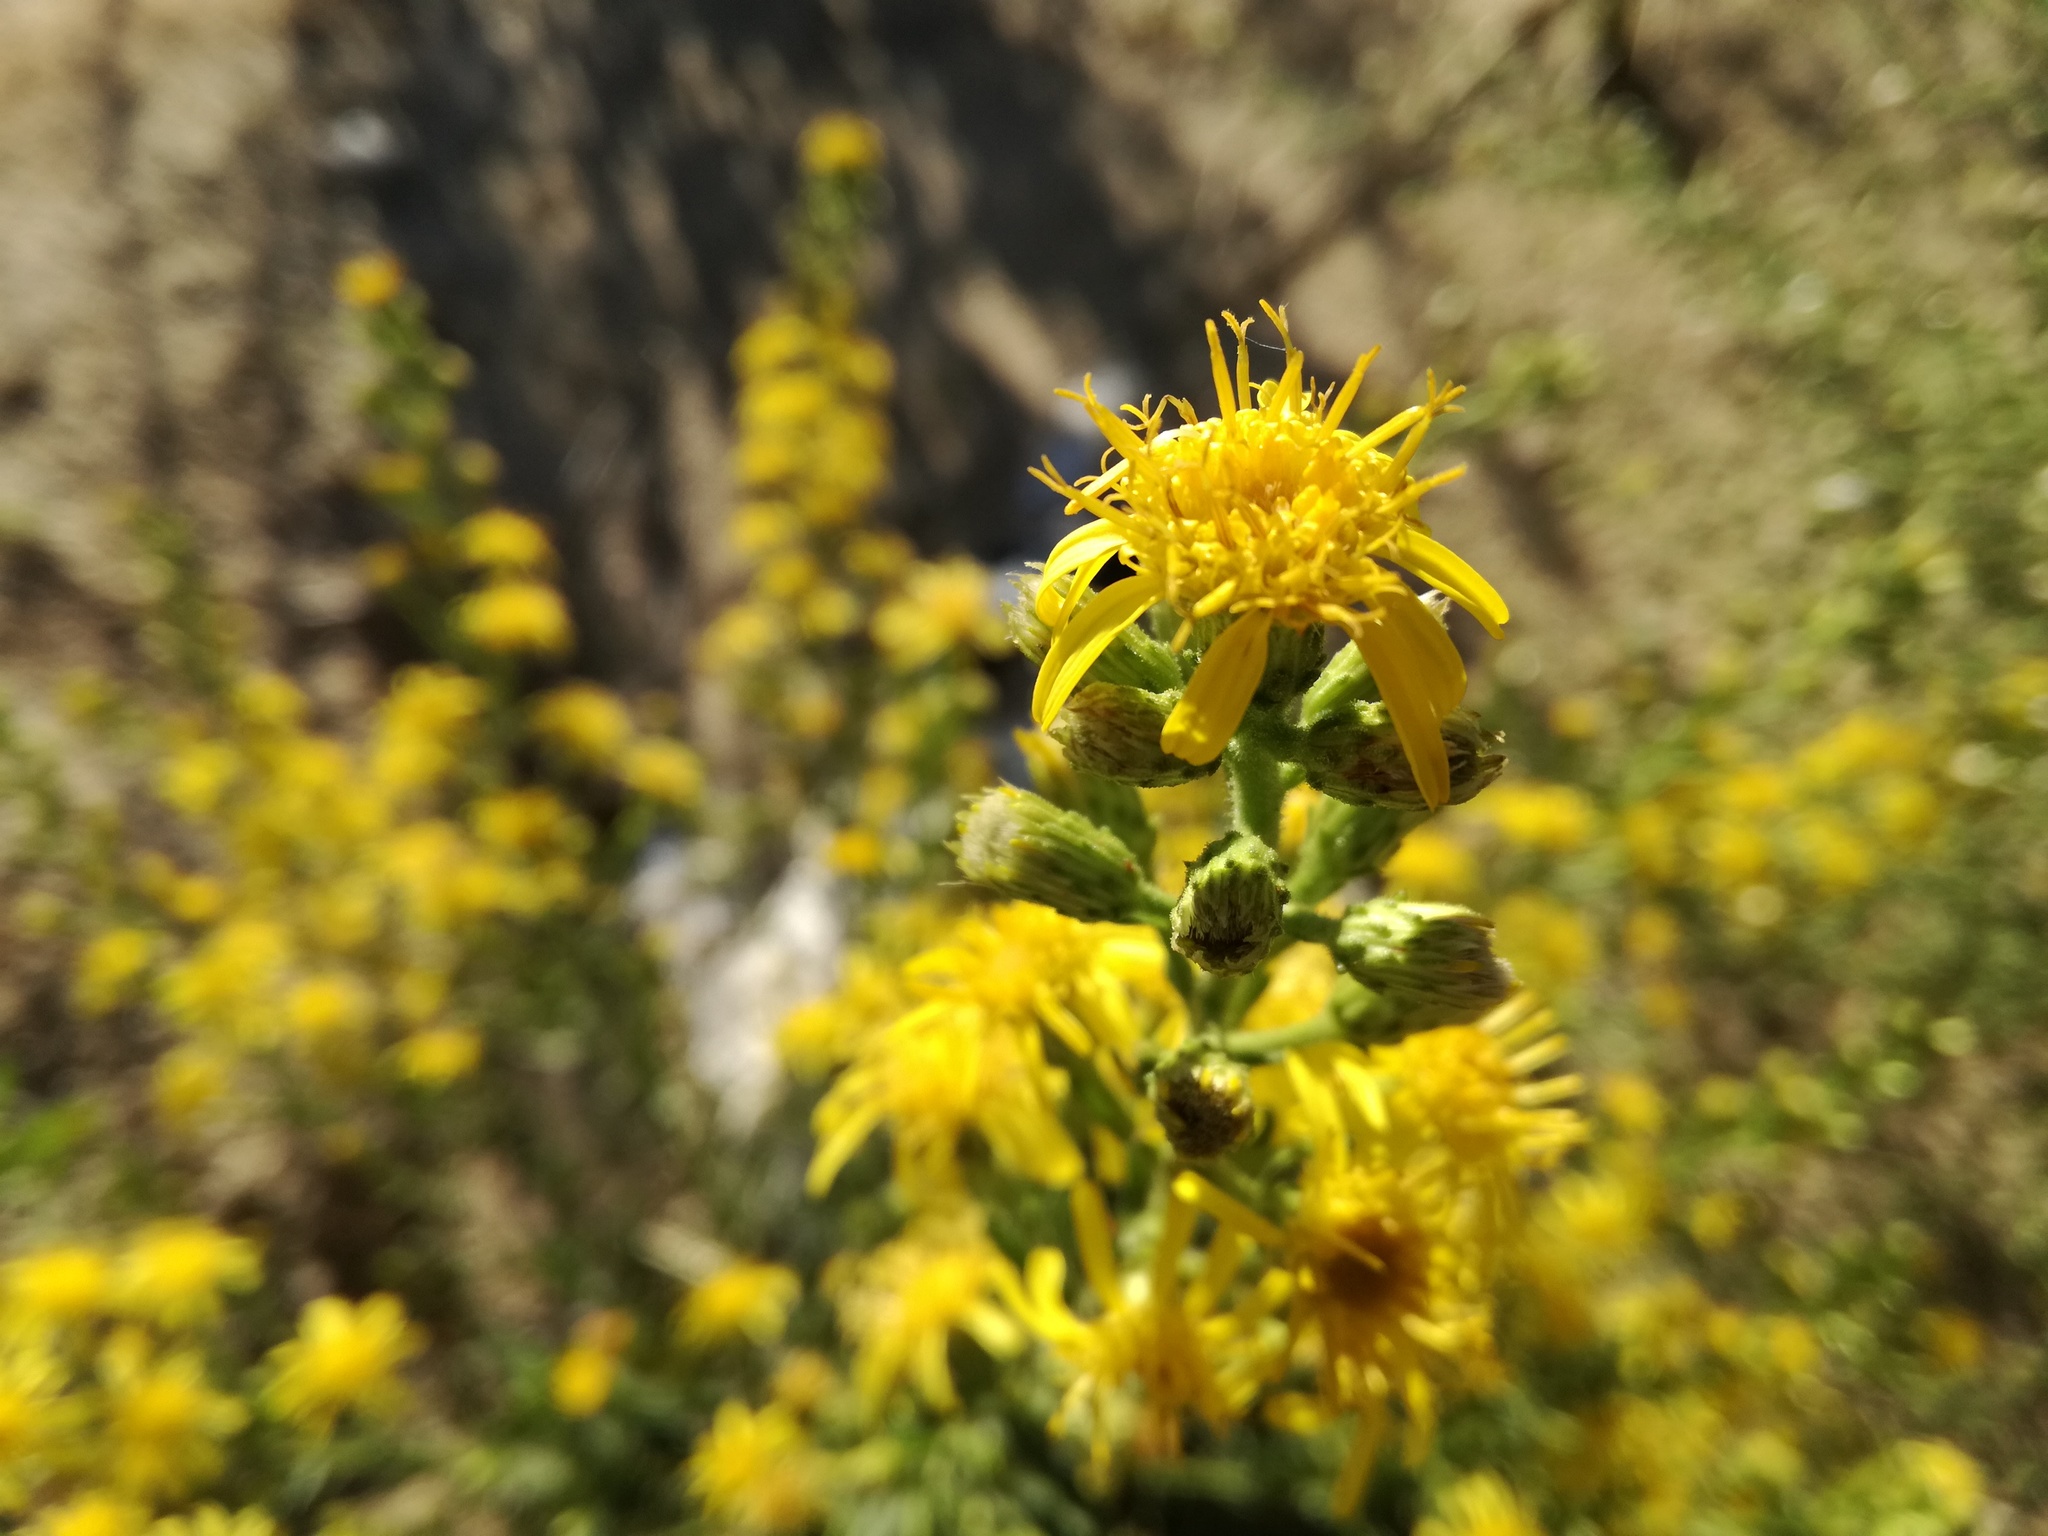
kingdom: Plantae
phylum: Tracheophyta
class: Magnoliopsida
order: Asterales
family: Asteraceae
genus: Dittrichia
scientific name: Dittrichia viscosa
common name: Woody fleabane
